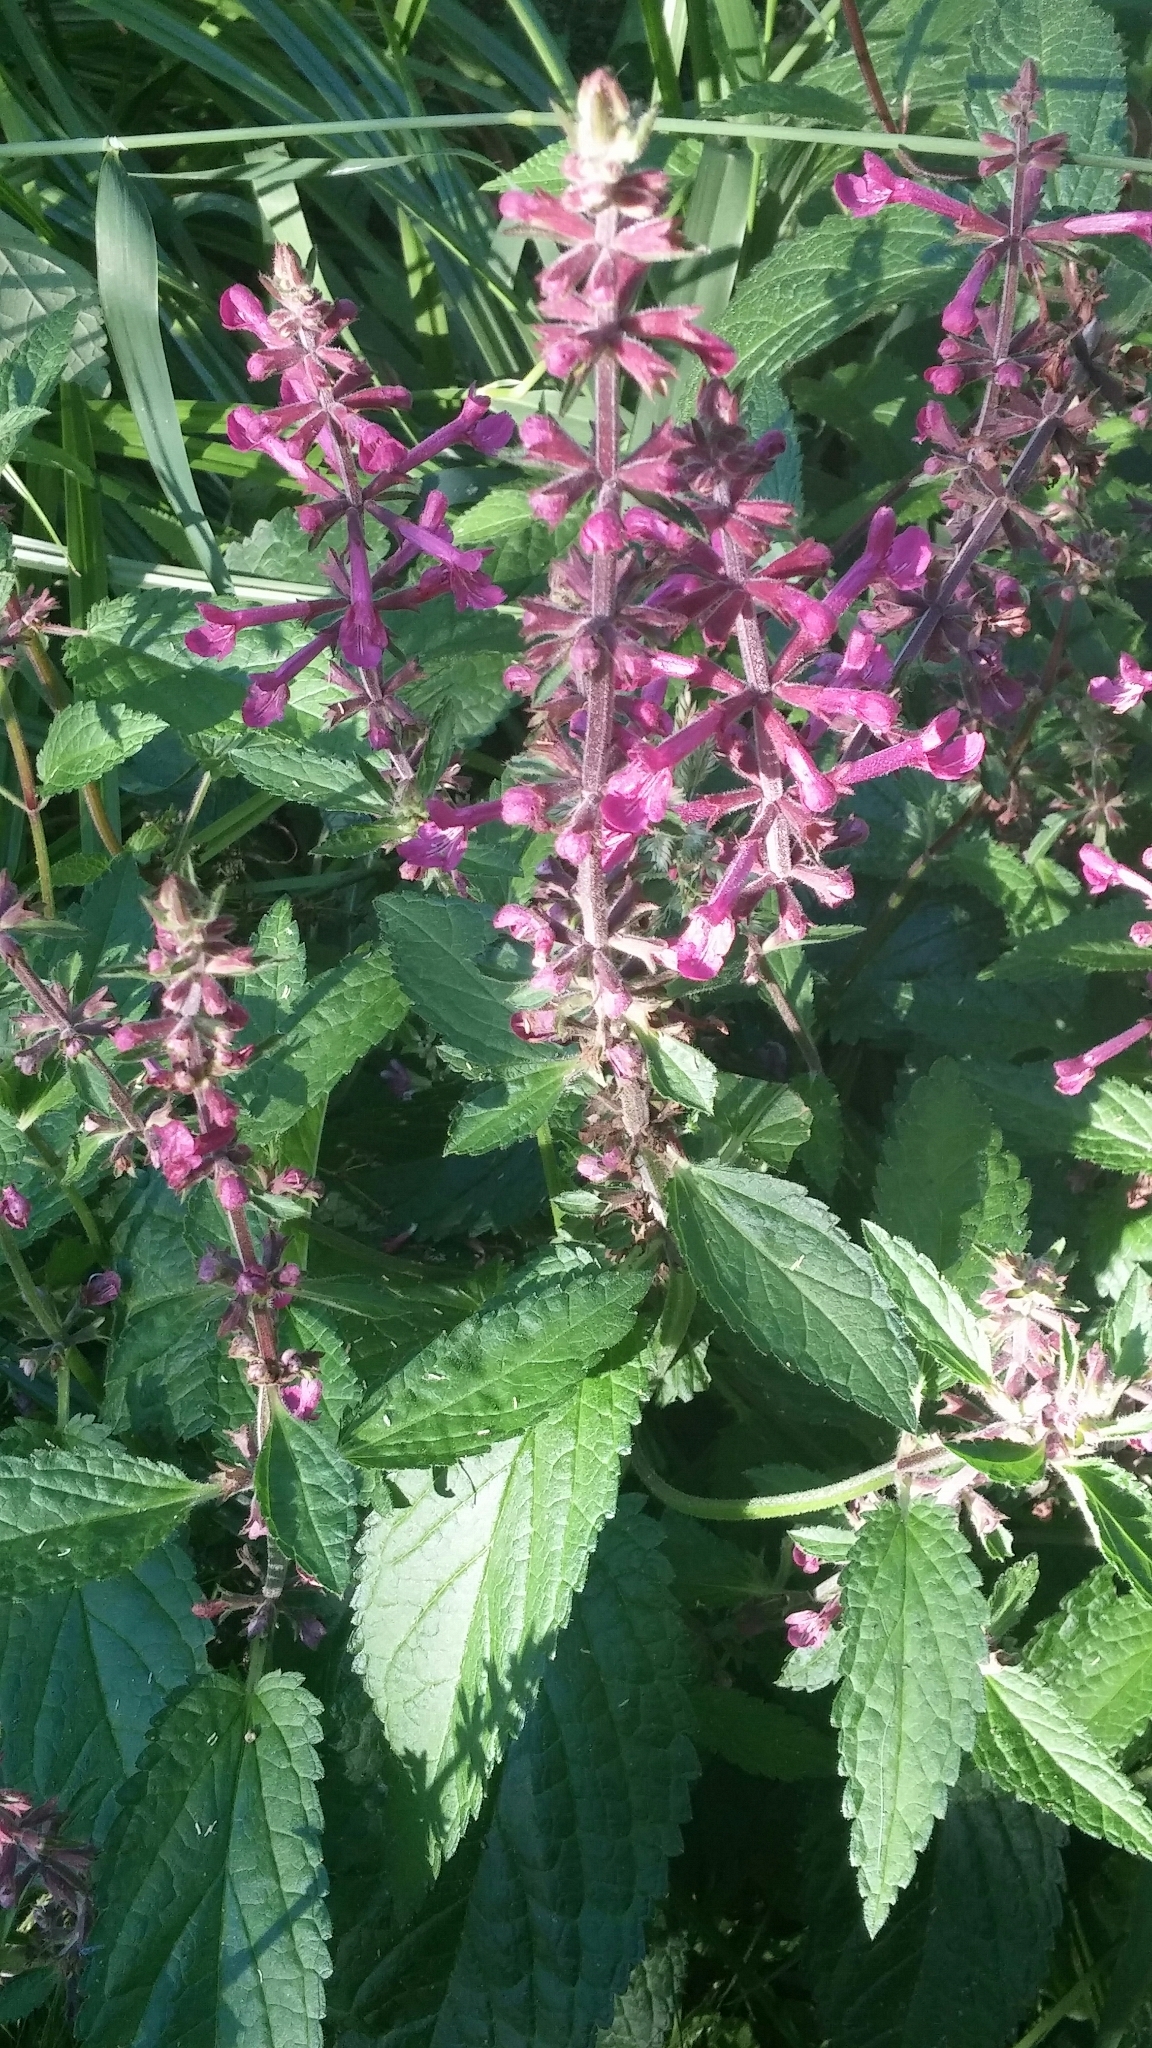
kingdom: Plantae
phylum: Tracheophyta
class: Magnoliopsida
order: Lamiales
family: Lamiaceae
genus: Stachys
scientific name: Stachys chamissonis
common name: Coastal hedge-nettle
